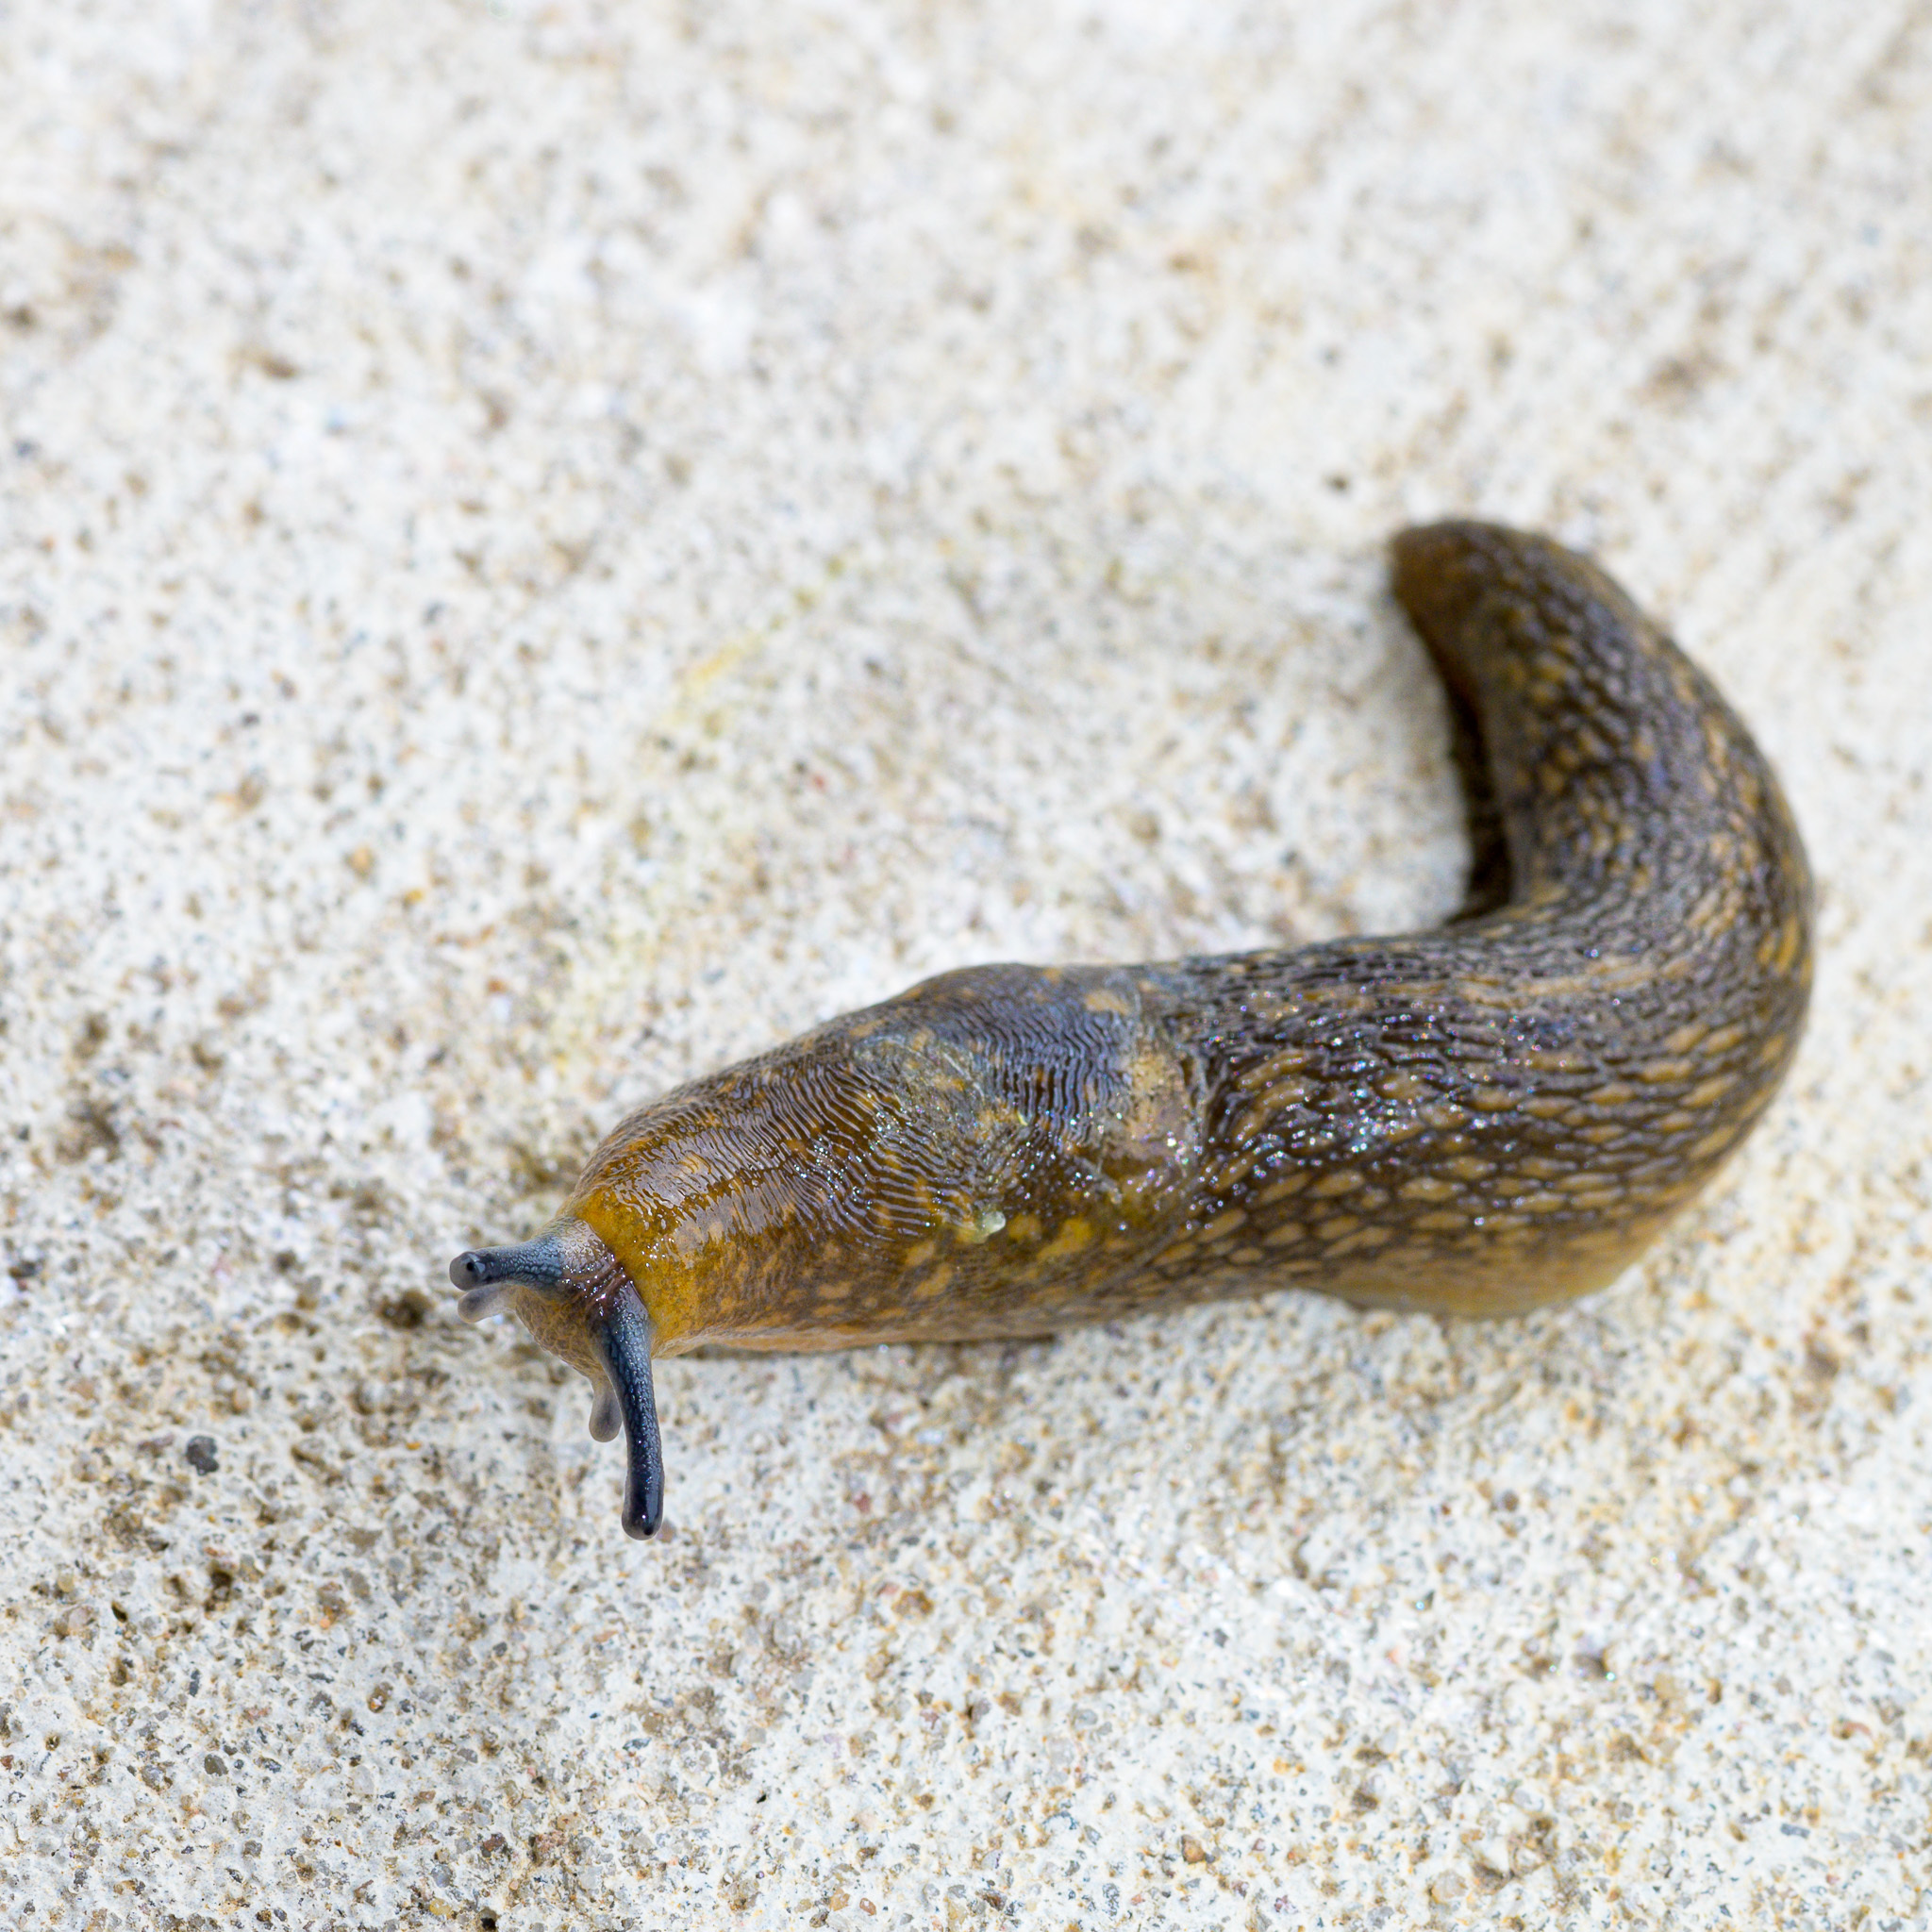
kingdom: Animalia
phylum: Mollusca
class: Gastropoda
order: Stylommatophora
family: Limacidae
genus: Limacus
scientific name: Limacus flavus
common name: Yellow gardenslug
